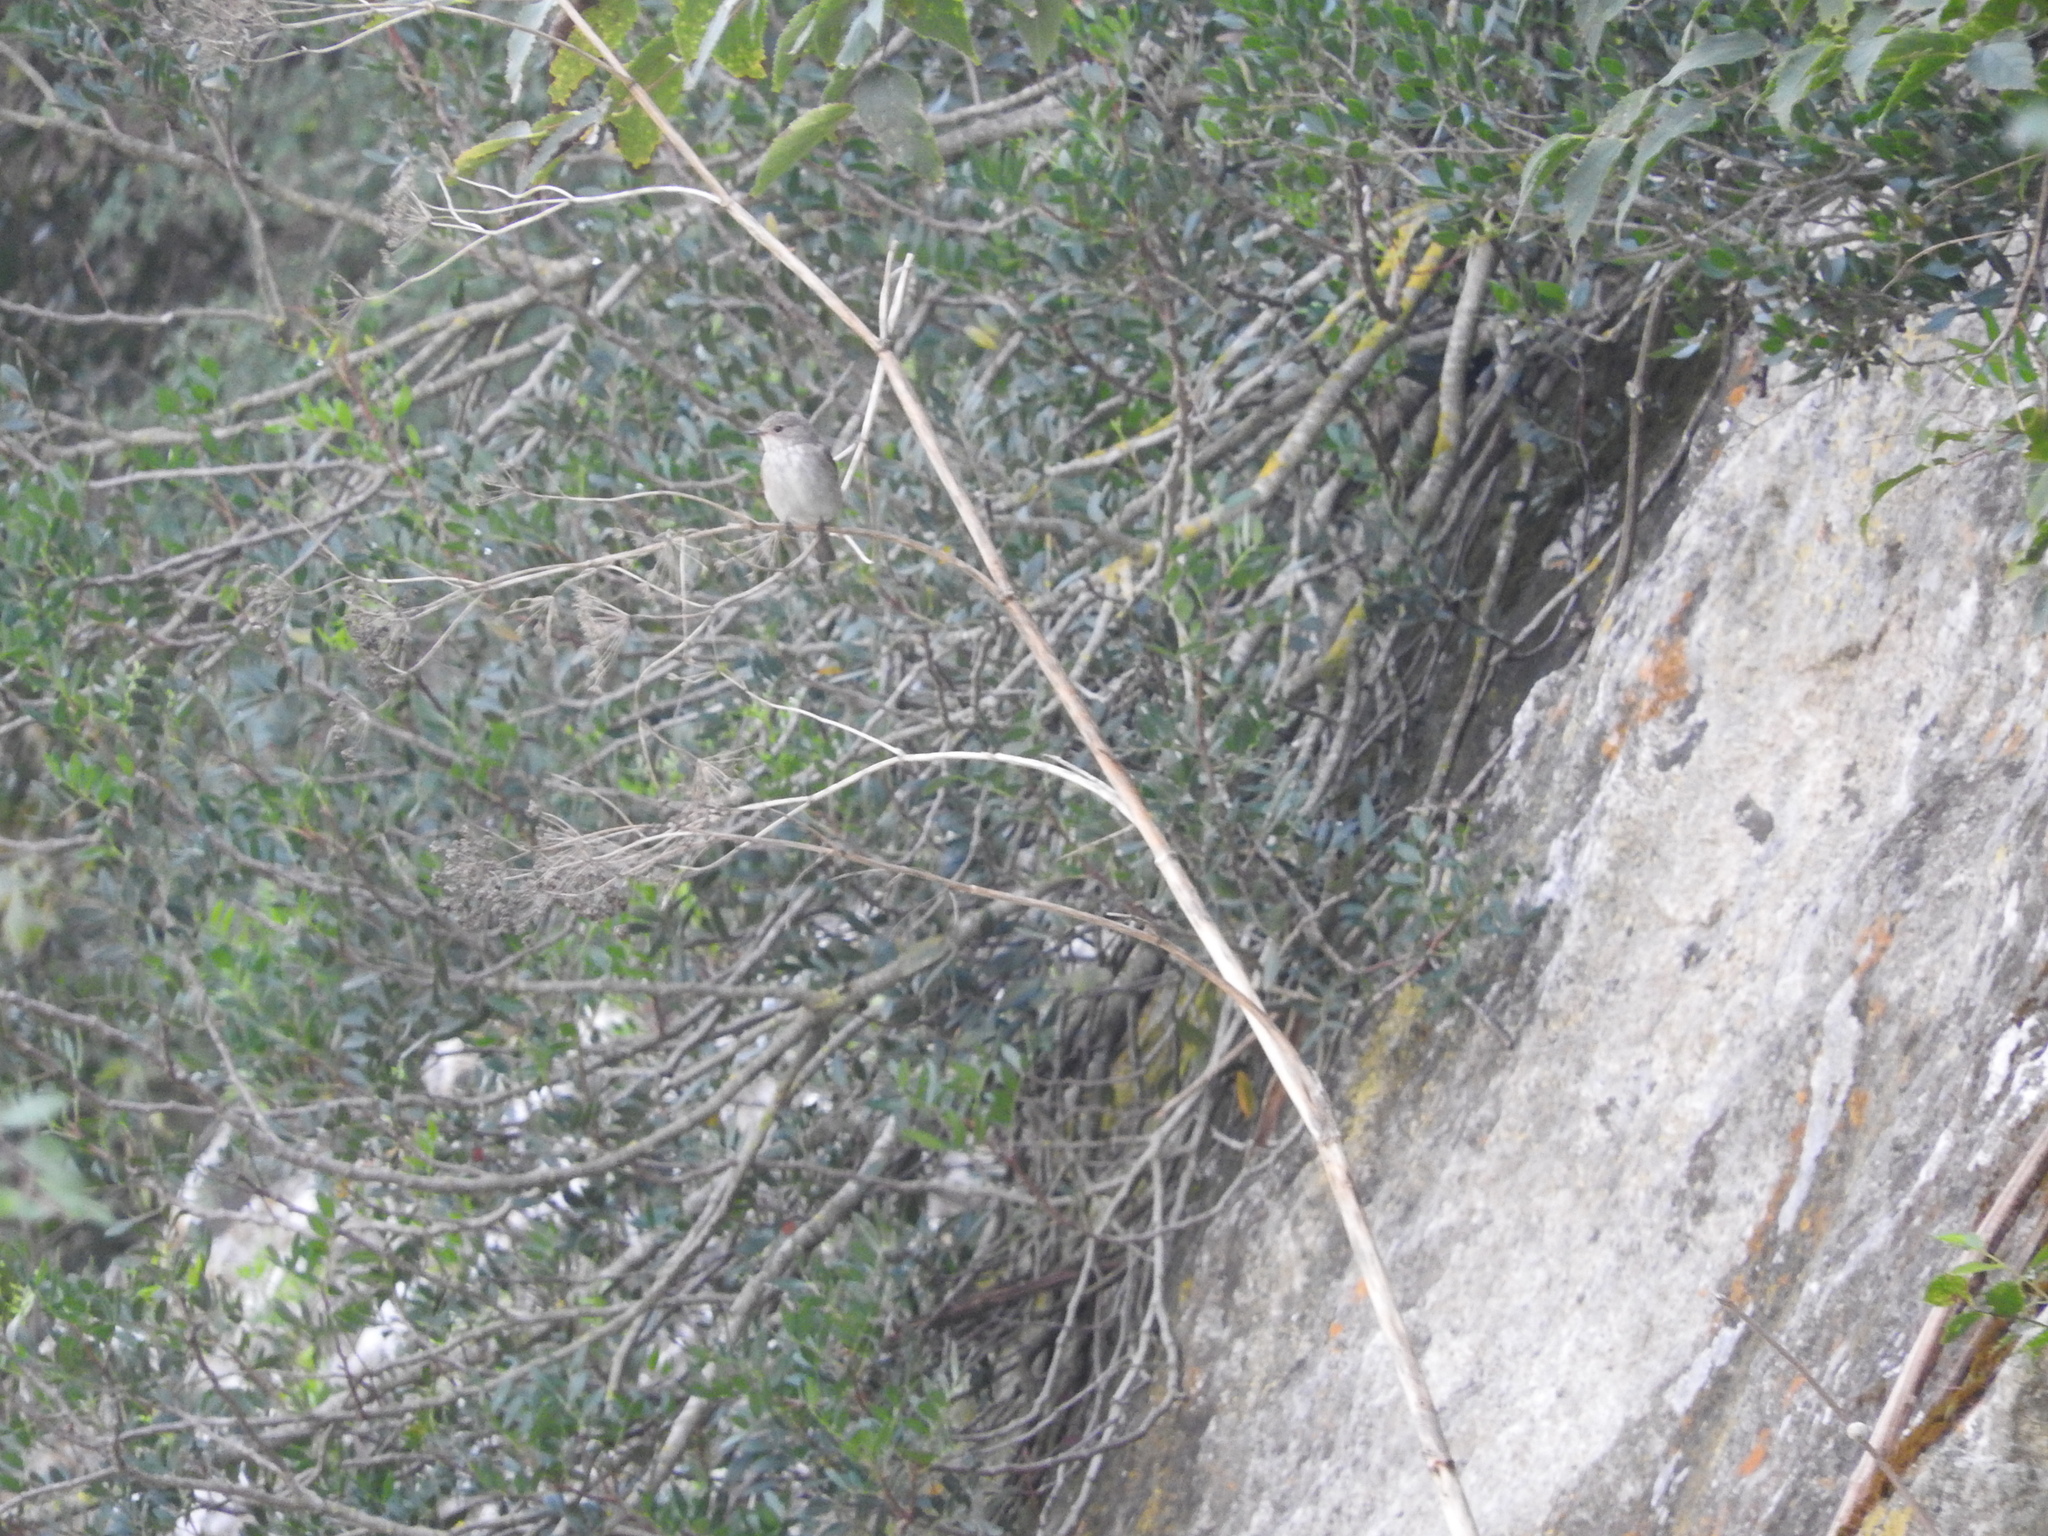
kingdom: Animalia
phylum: Chordata
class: Aves
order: Passeriformes
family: Muscicapidae
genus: Muscicapa
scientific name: Muscicapa striata
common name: Spotted flycatcher
